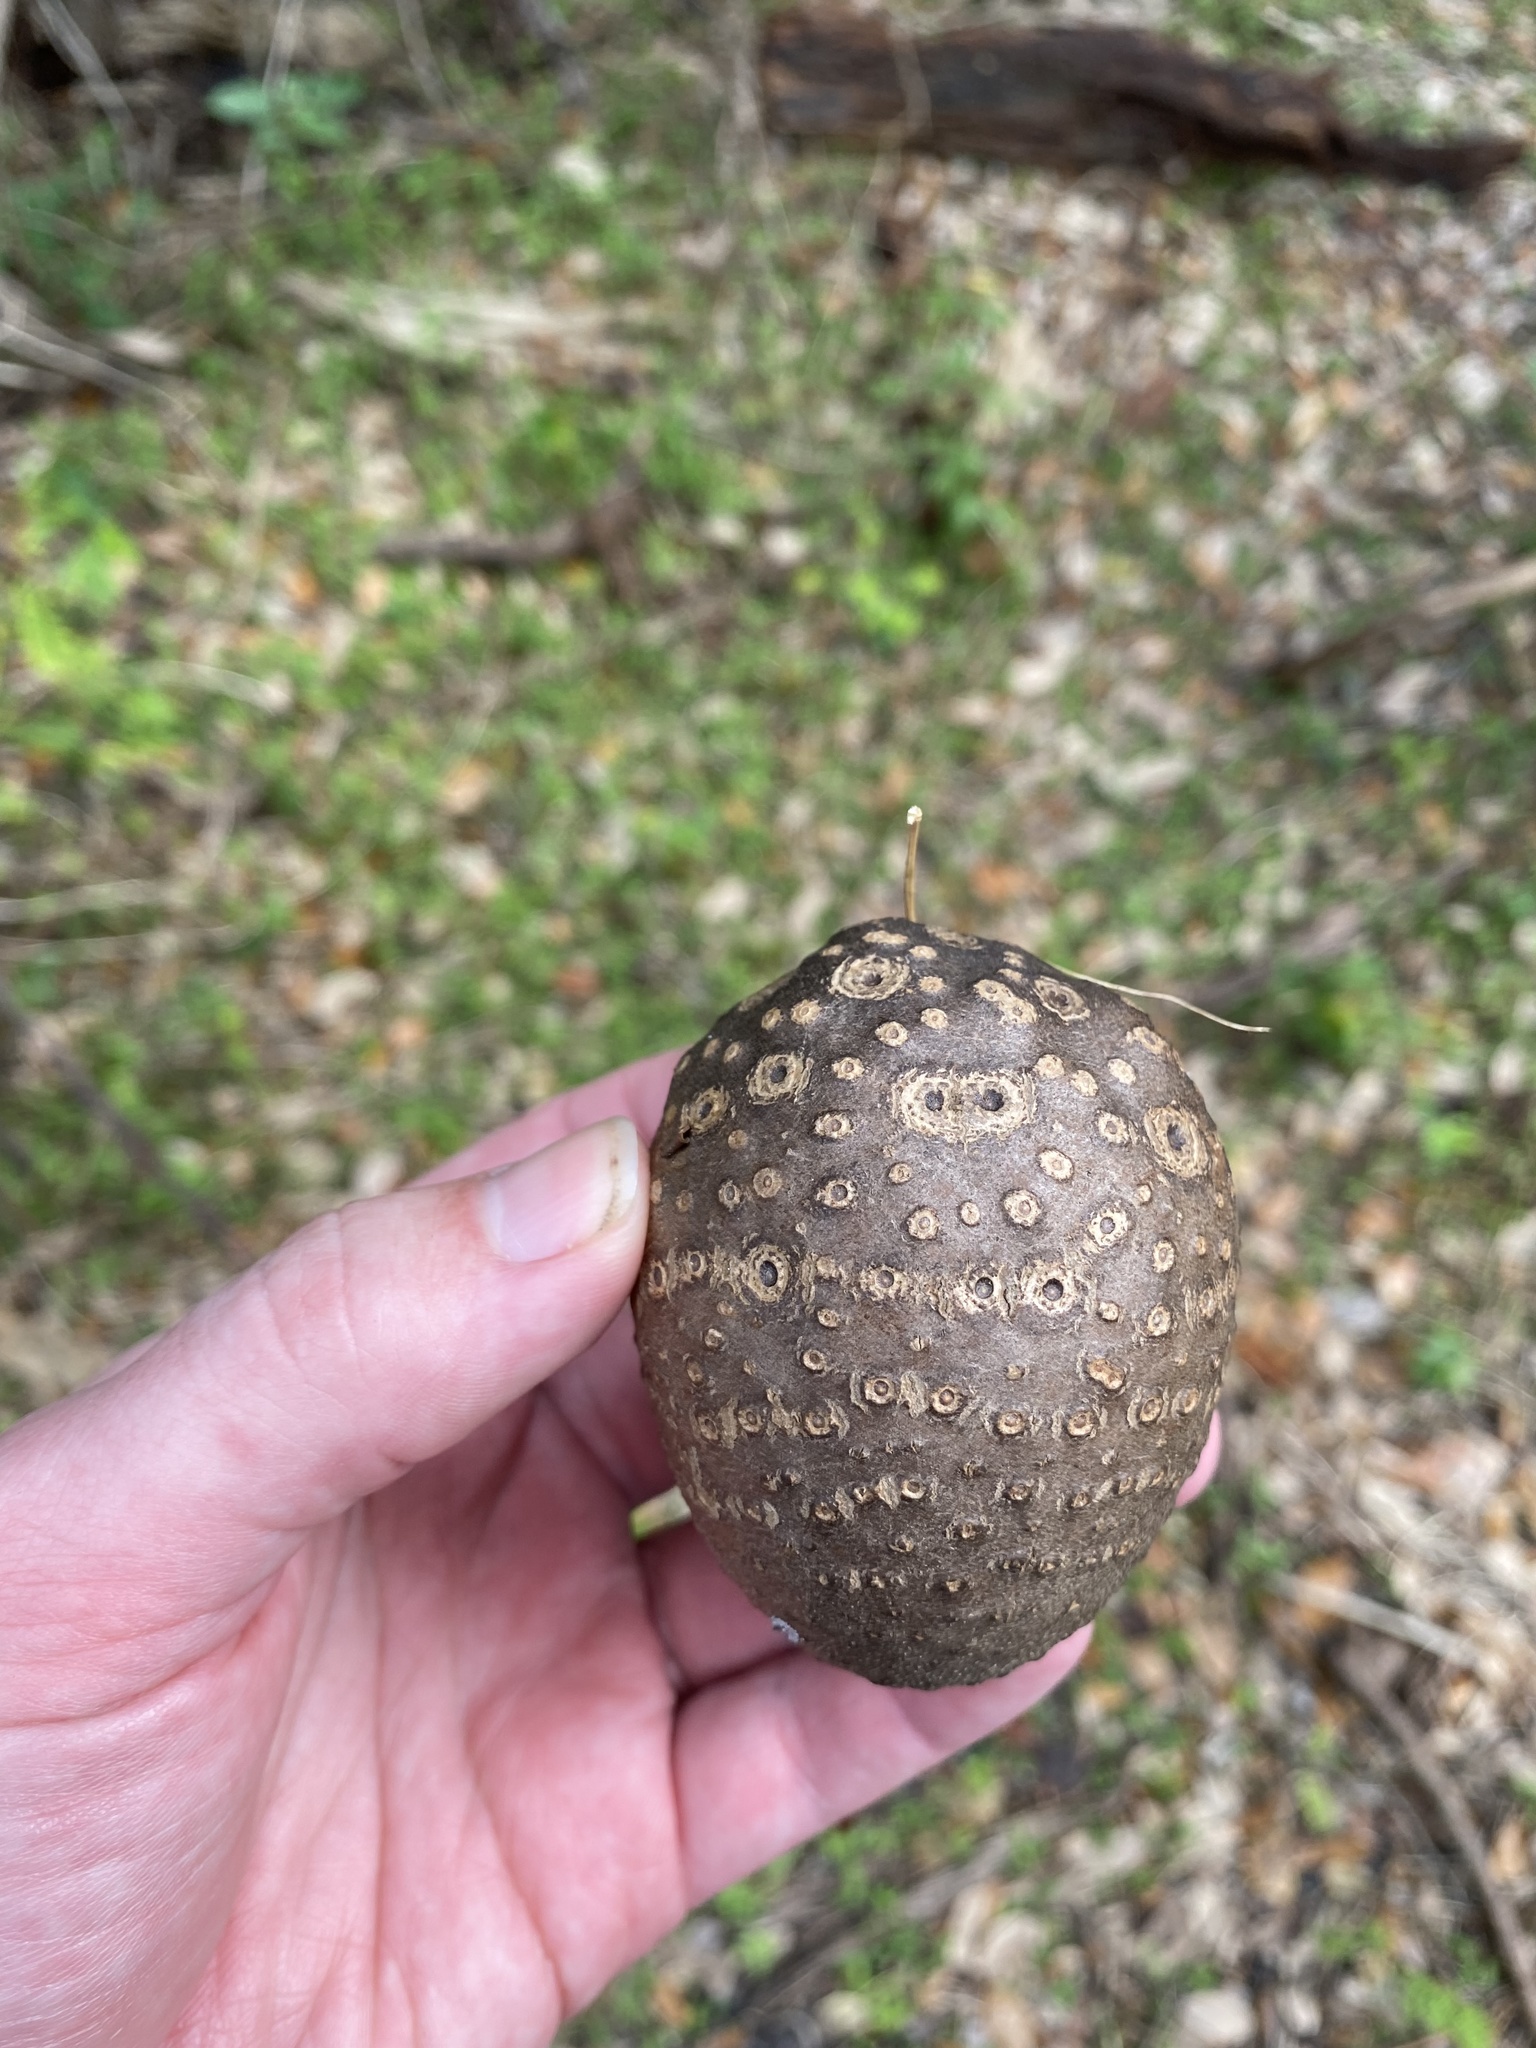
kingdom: Plantae
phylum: Tracheophyta
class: Liliopsida
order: Dioscoreales
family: Dioscoreaceae
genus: Dioscorea
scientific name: Dioscorea bulbifera
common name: Air yam
